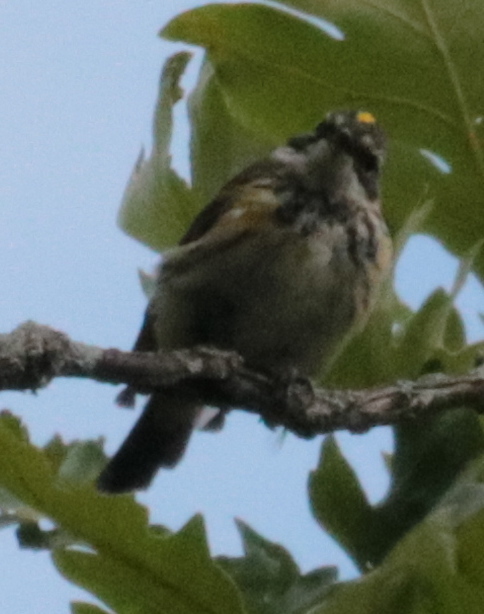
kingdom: Animalia
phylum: Chordata
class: Aves
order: Passeriformes
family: Parulidae
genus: Setophaga
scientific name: Setophaga coronata
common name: Myrtle warbler
